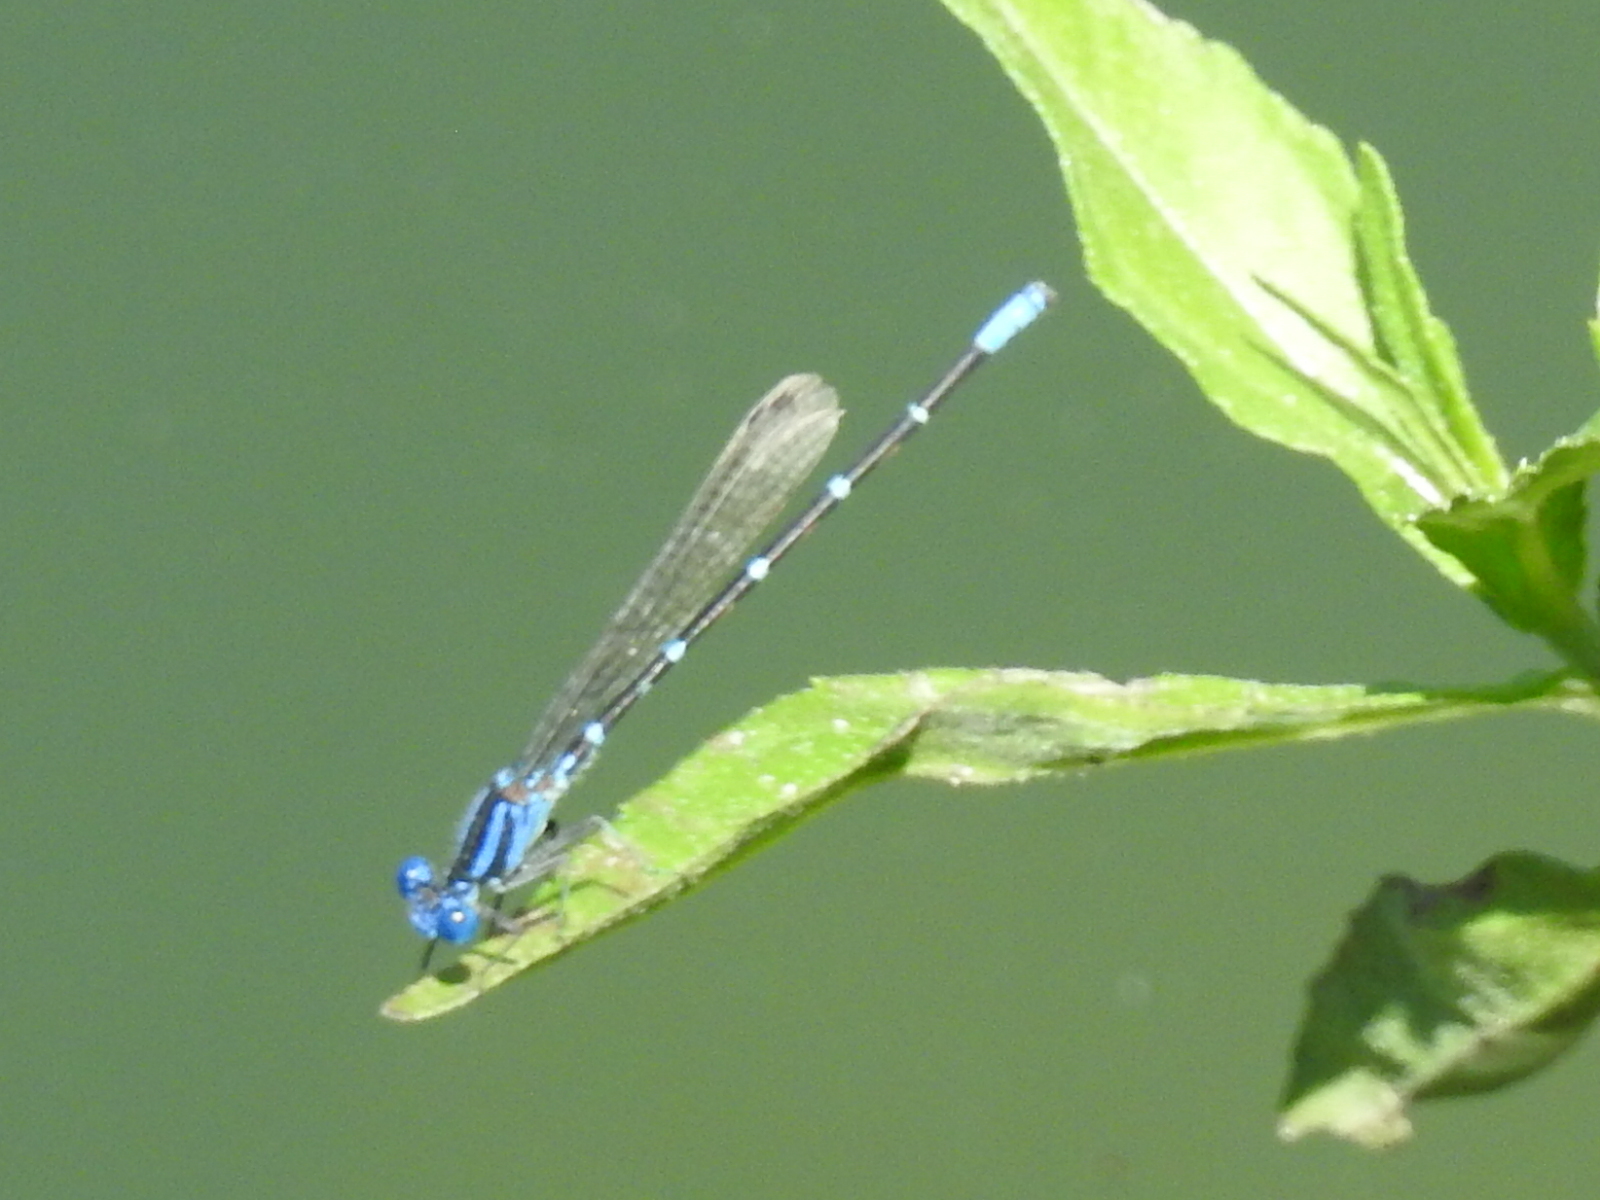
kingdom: Animalia
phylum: Arthropoda
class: Insecta
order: Odonata
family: Coenagrionidae
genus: Argia
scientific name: Argia sedula
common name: Blue-ringed dancer
